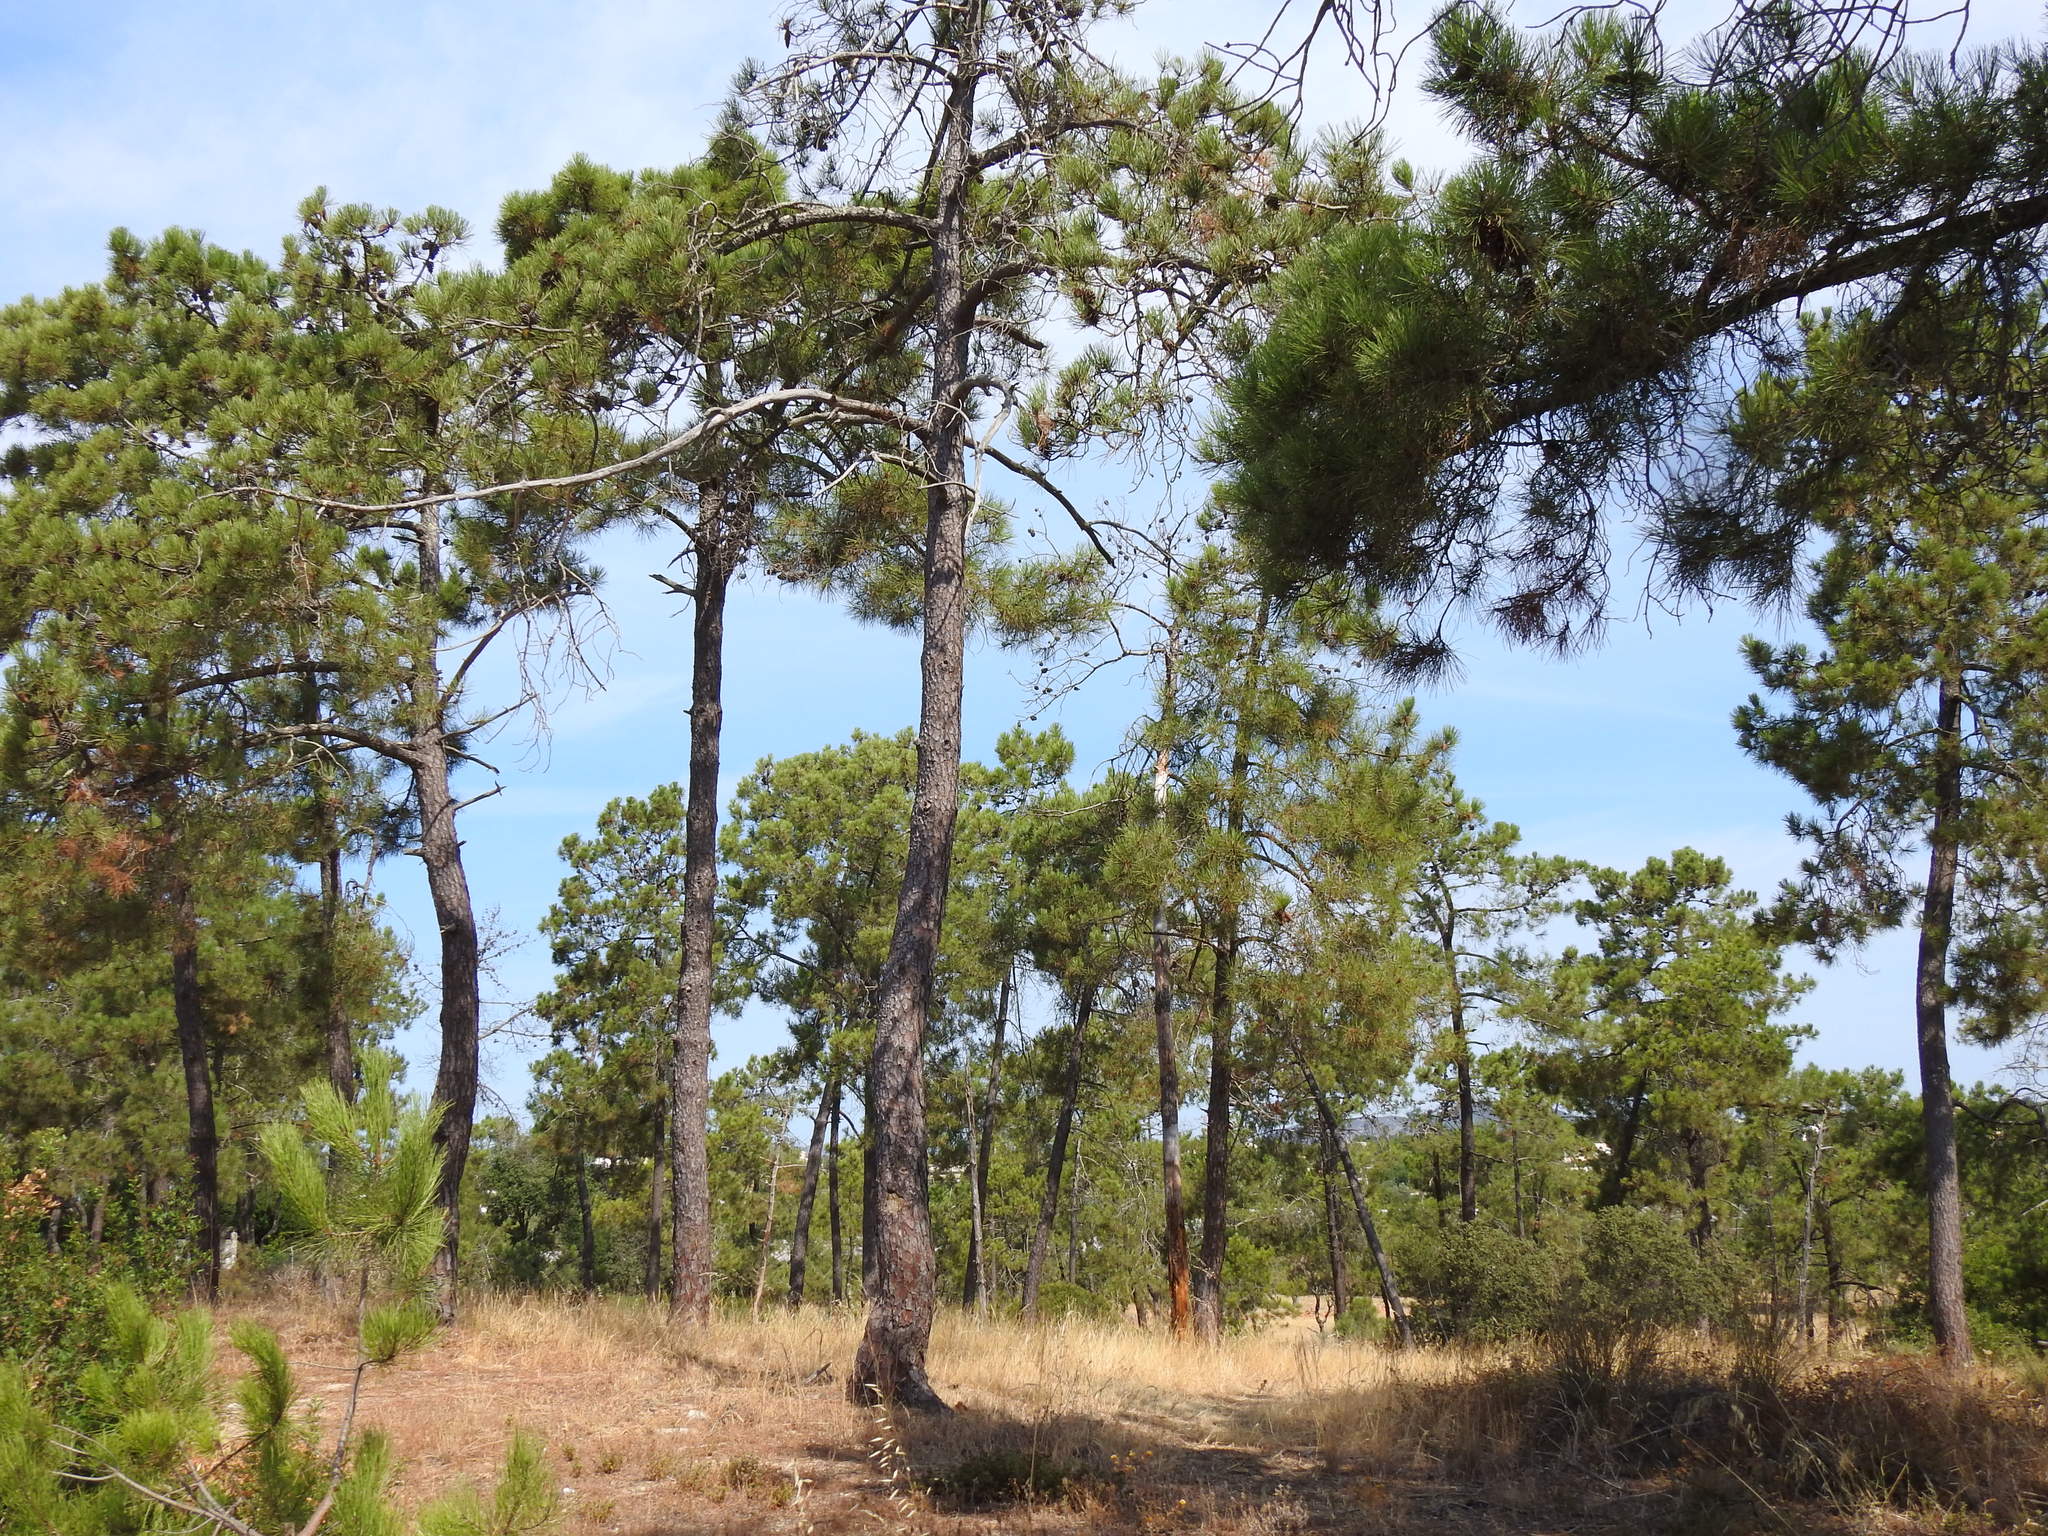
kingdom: Plantae
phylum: Tracheophyta
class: Pinopsida
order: Pinales
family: Pinaceae
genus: Pinus
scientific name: Pinus pinaster
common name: Maritime pine
